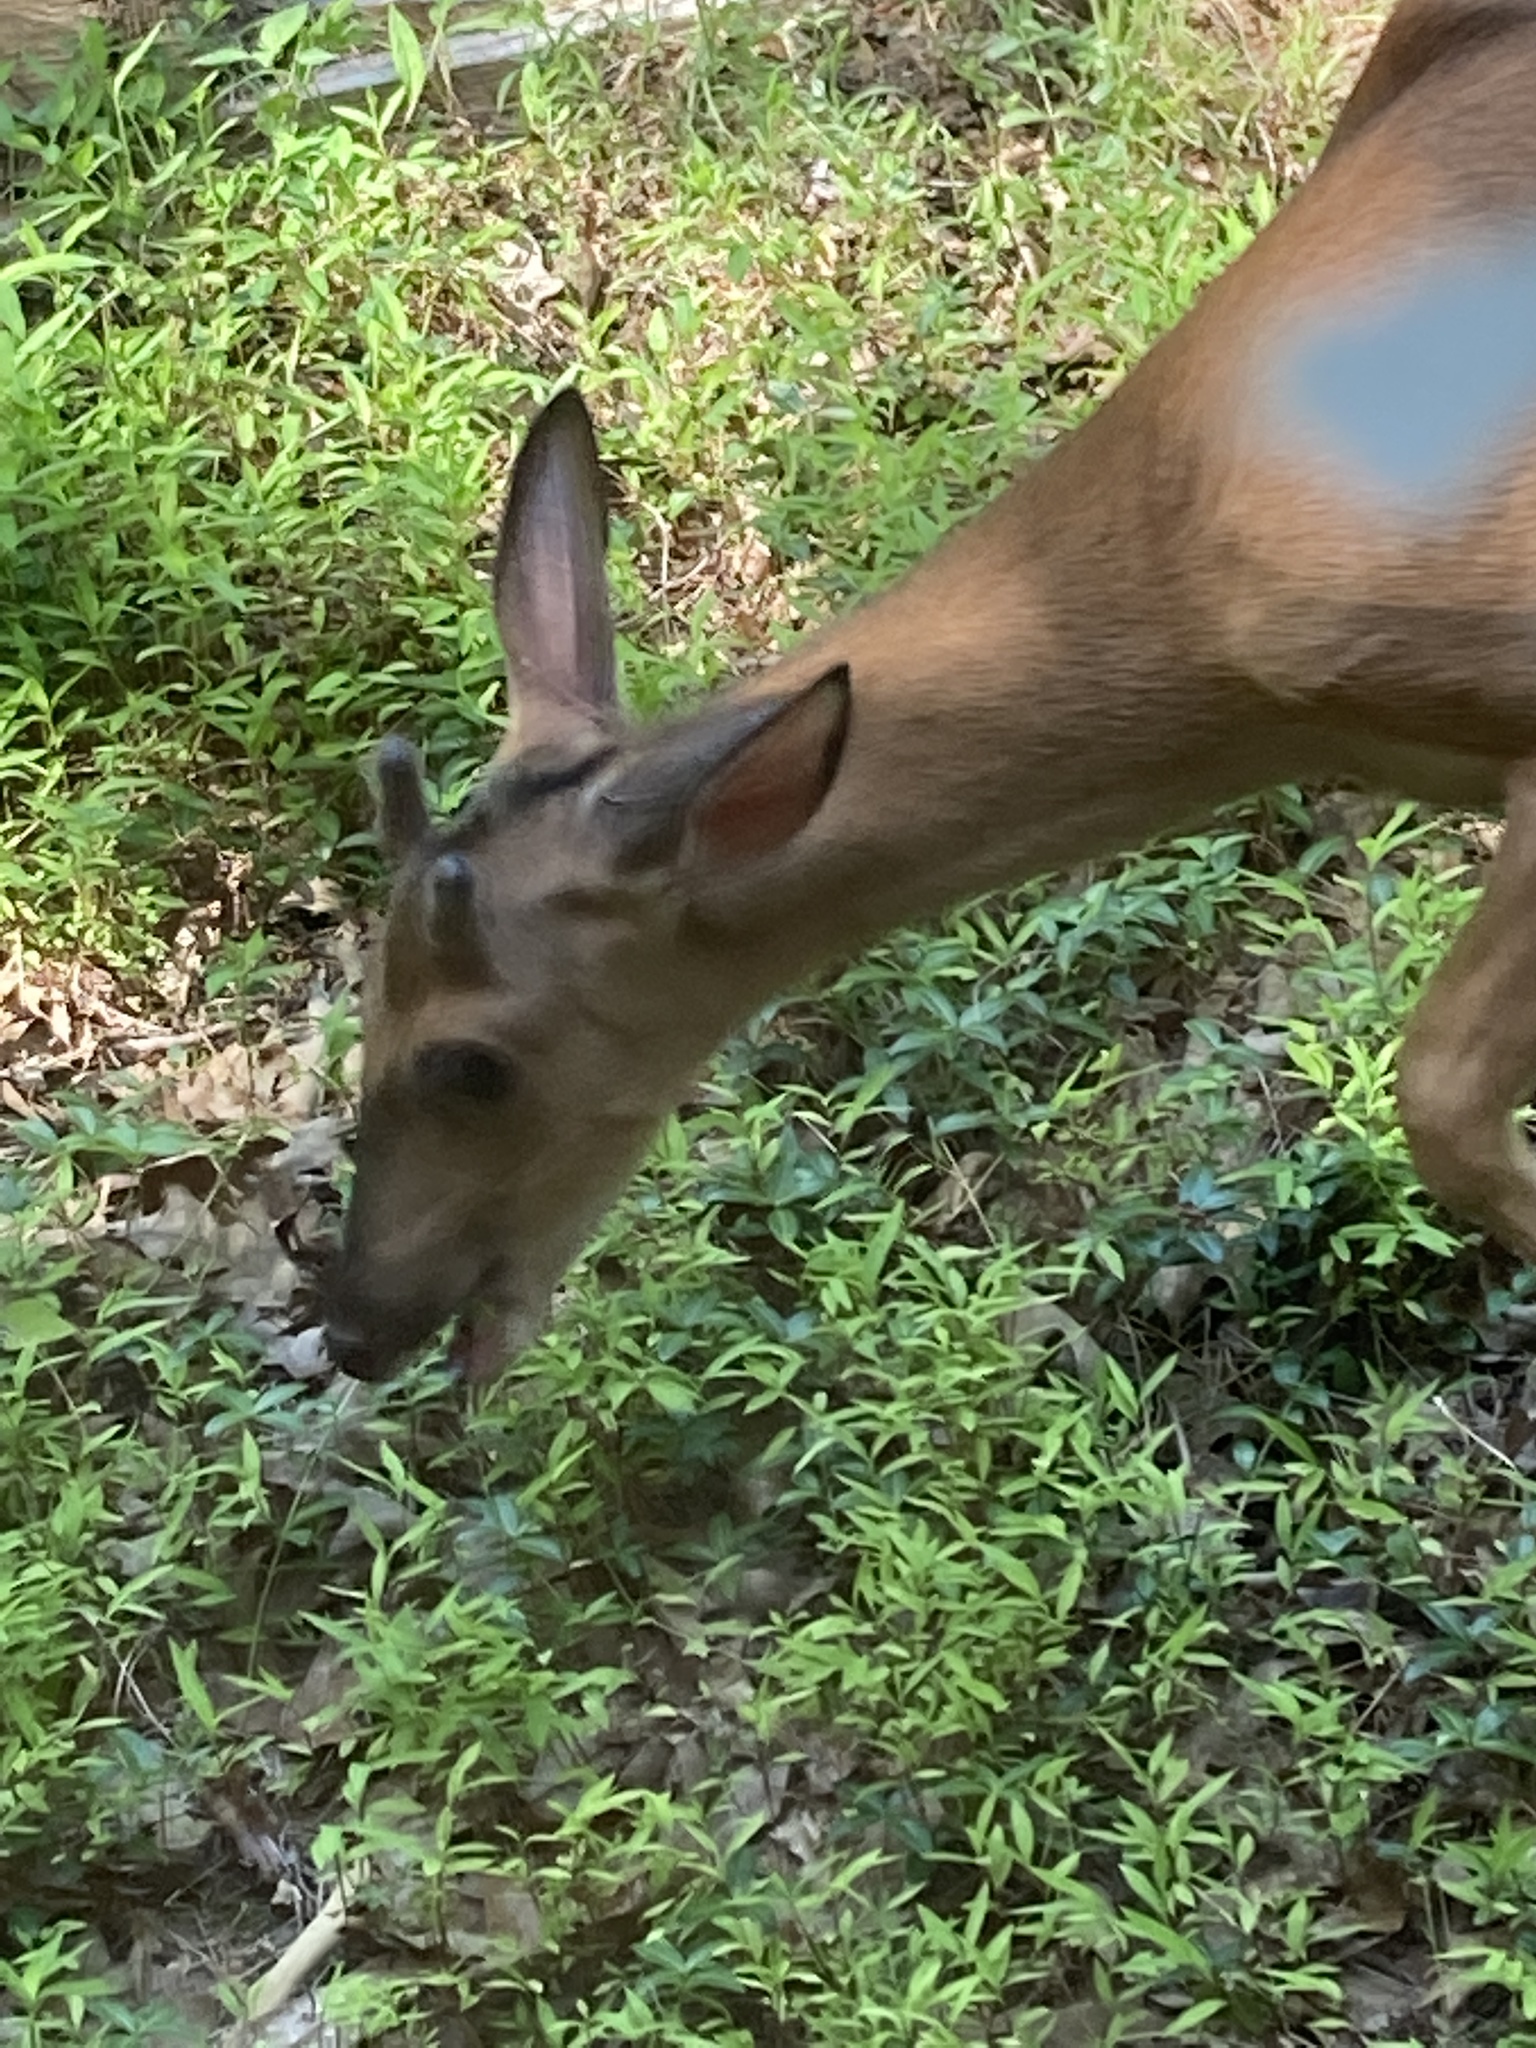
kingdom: Animalia
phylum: Chordata
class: Mammalia
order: Artiodactyla
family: Cervidae
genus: Odocoileus
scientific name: Odocoileus virginianus
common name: White-tailed deer
